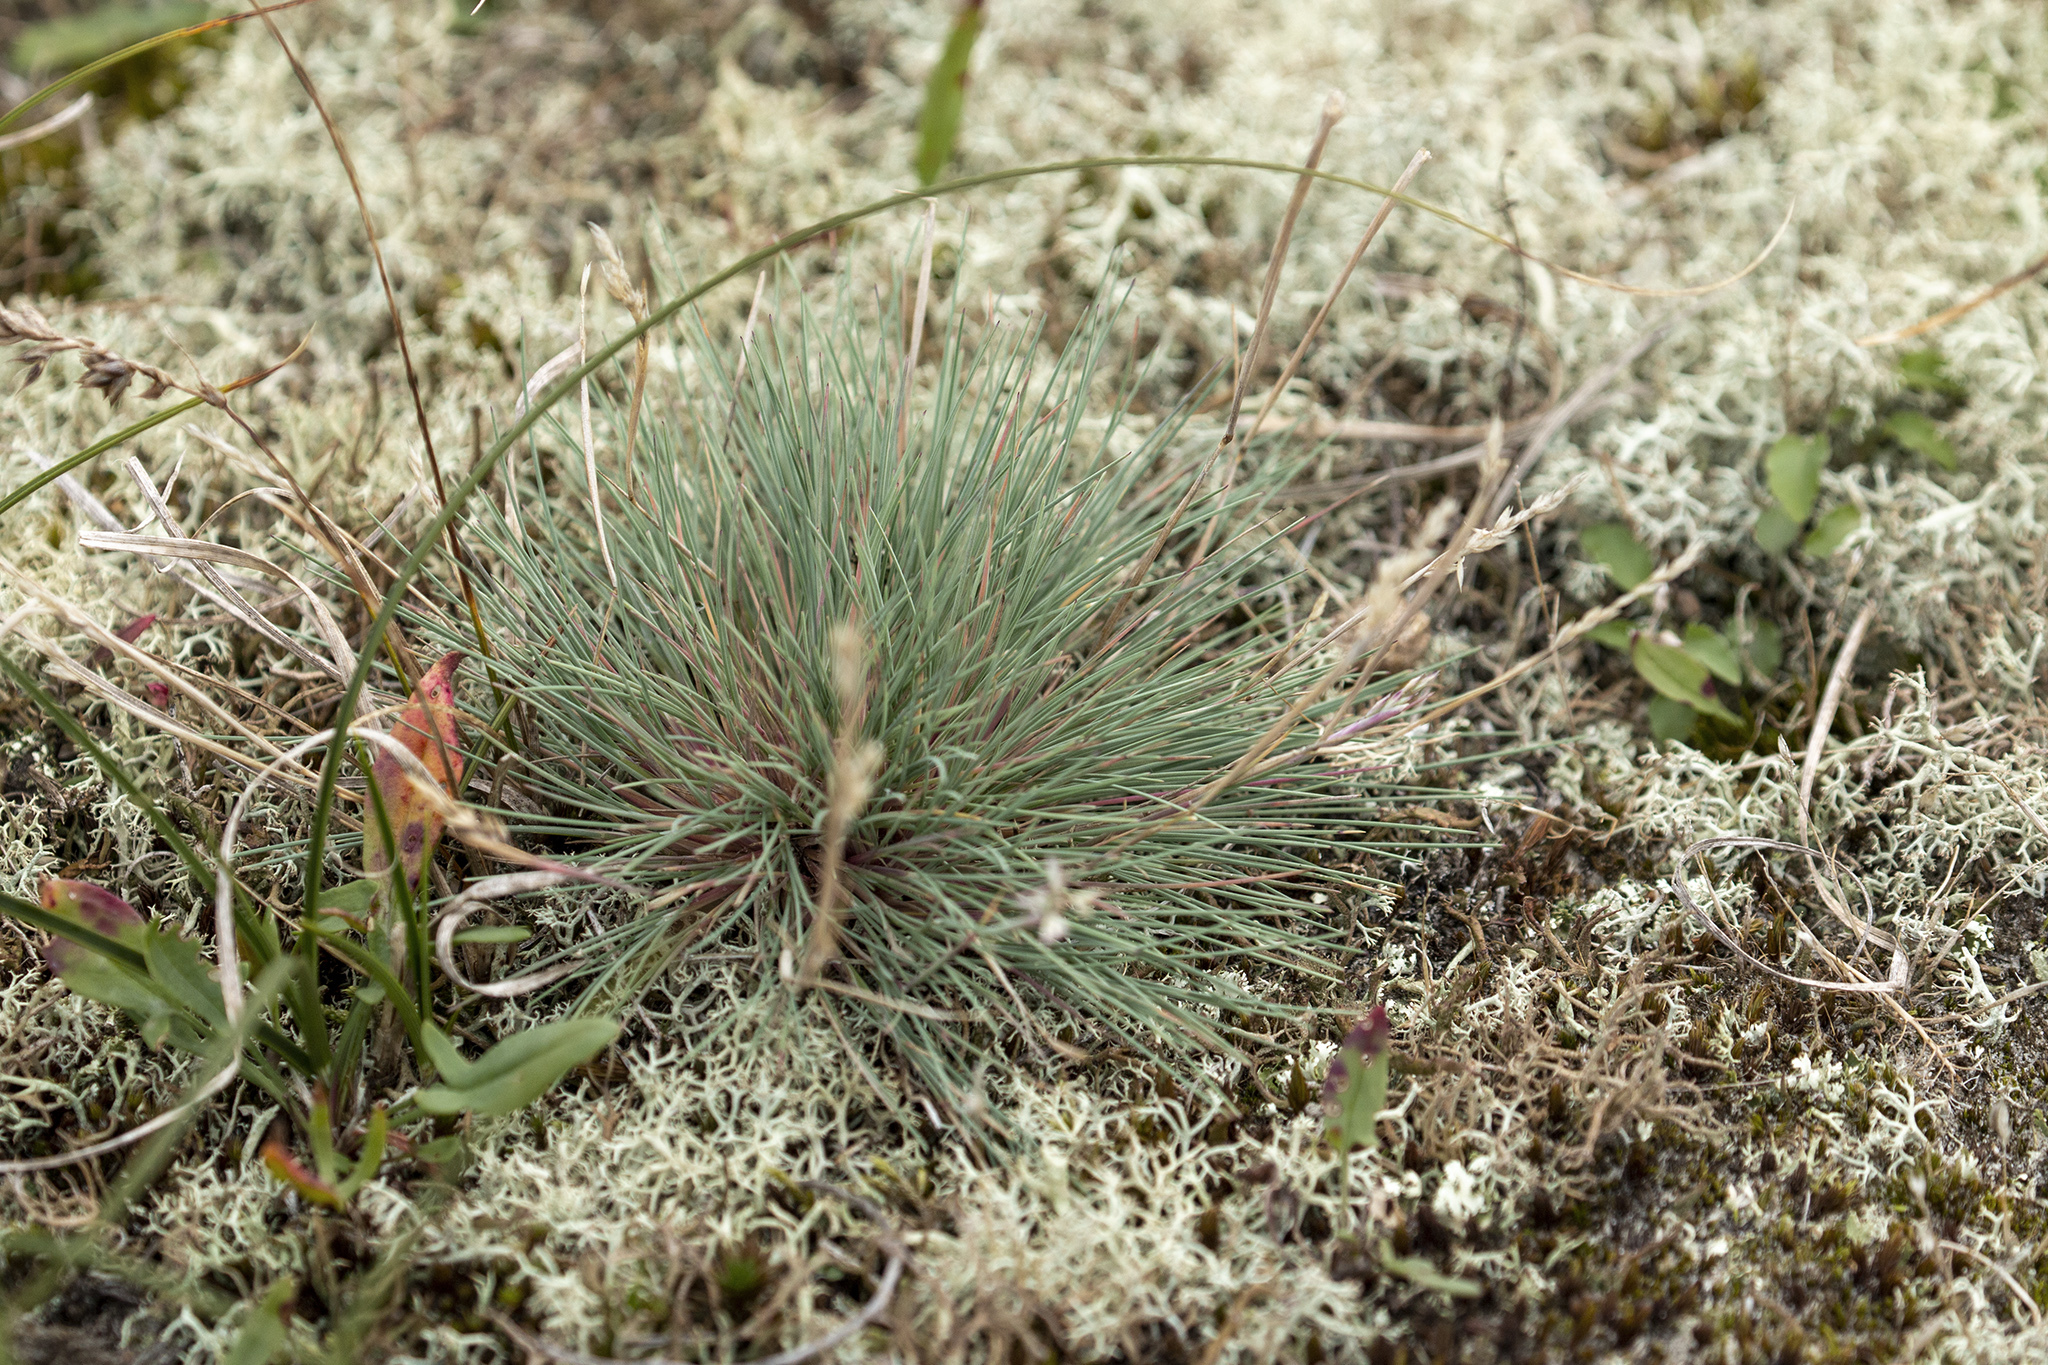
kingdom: Plantae
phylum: Tracheophyta
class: Liliopsida
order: Poales
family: Poaceae
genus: Corynephorus
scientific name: Corynephorus canescens
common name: Grey hair-grass
